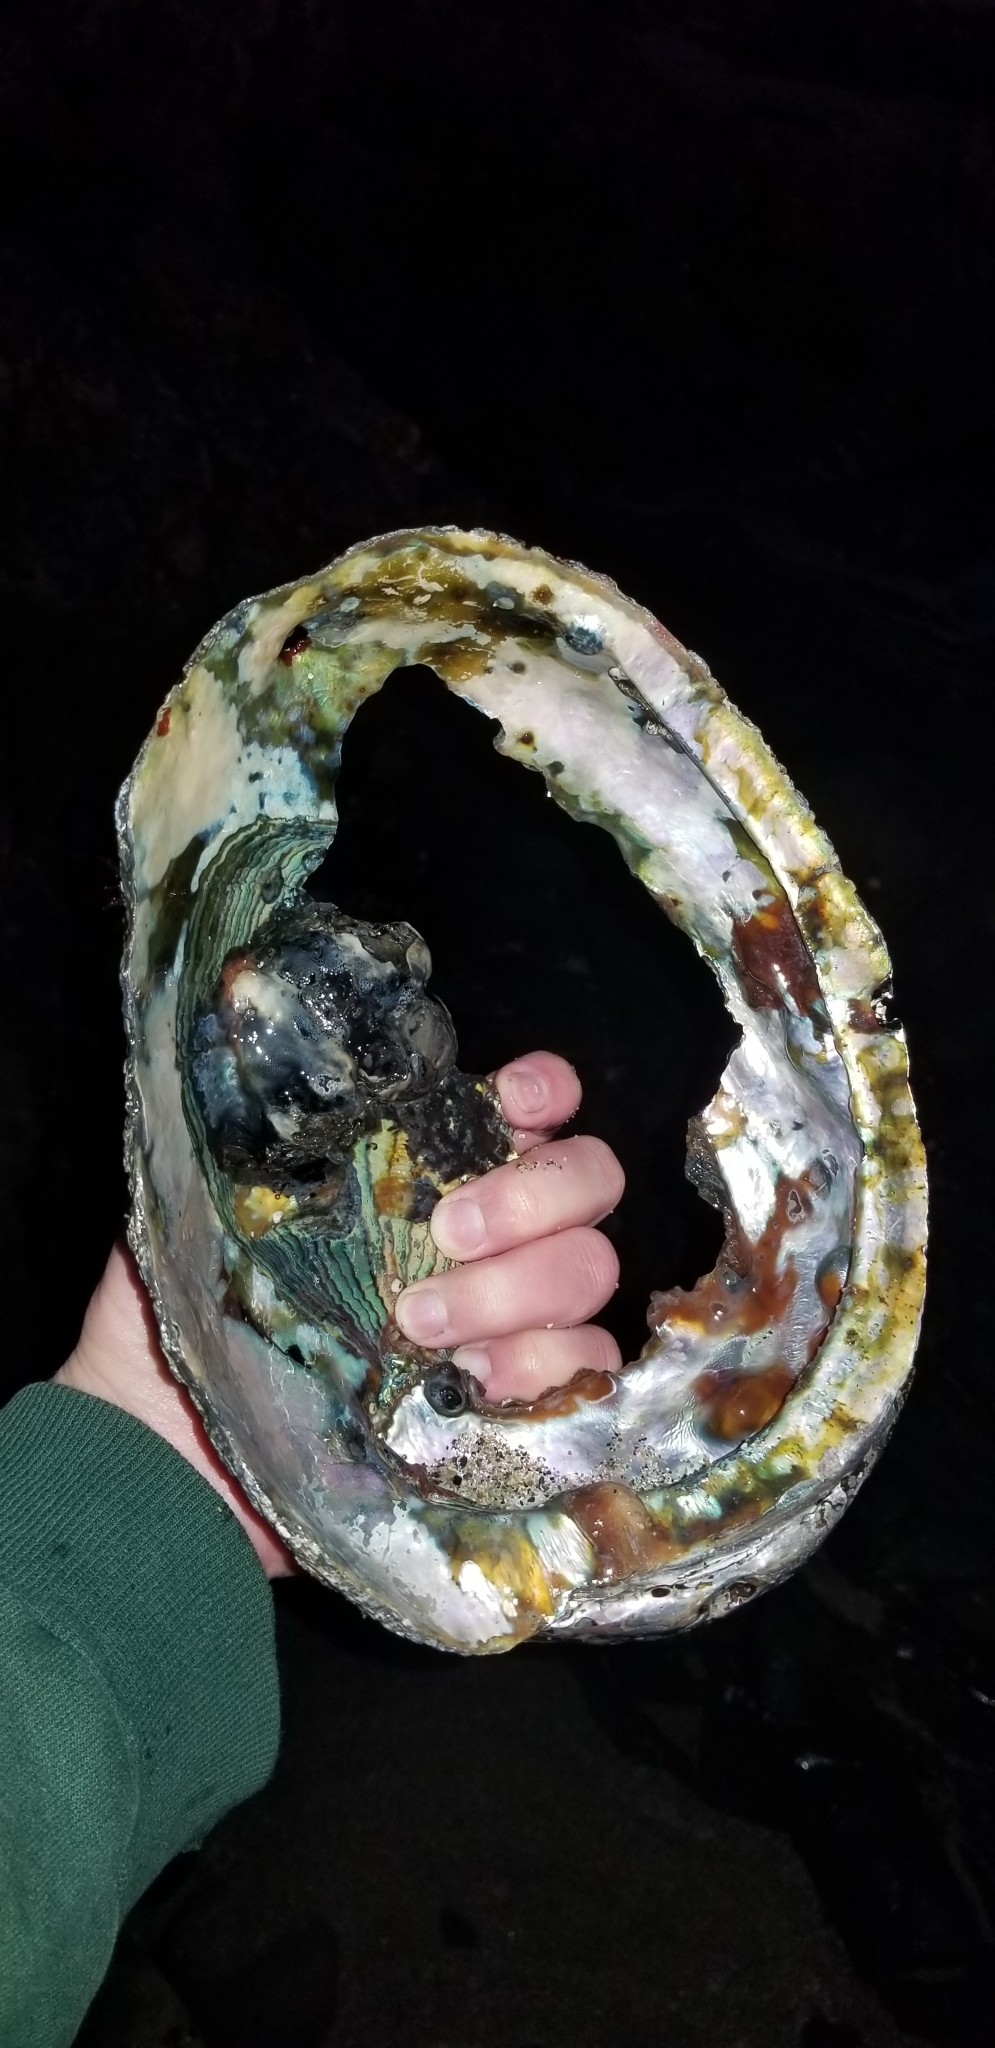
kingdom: Animalia
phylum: Mollusca
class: Gastropoda
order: Lepetellida
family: Haliotidae
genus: Haliotis
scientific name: Haliotis rufescens
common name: Red abalone
